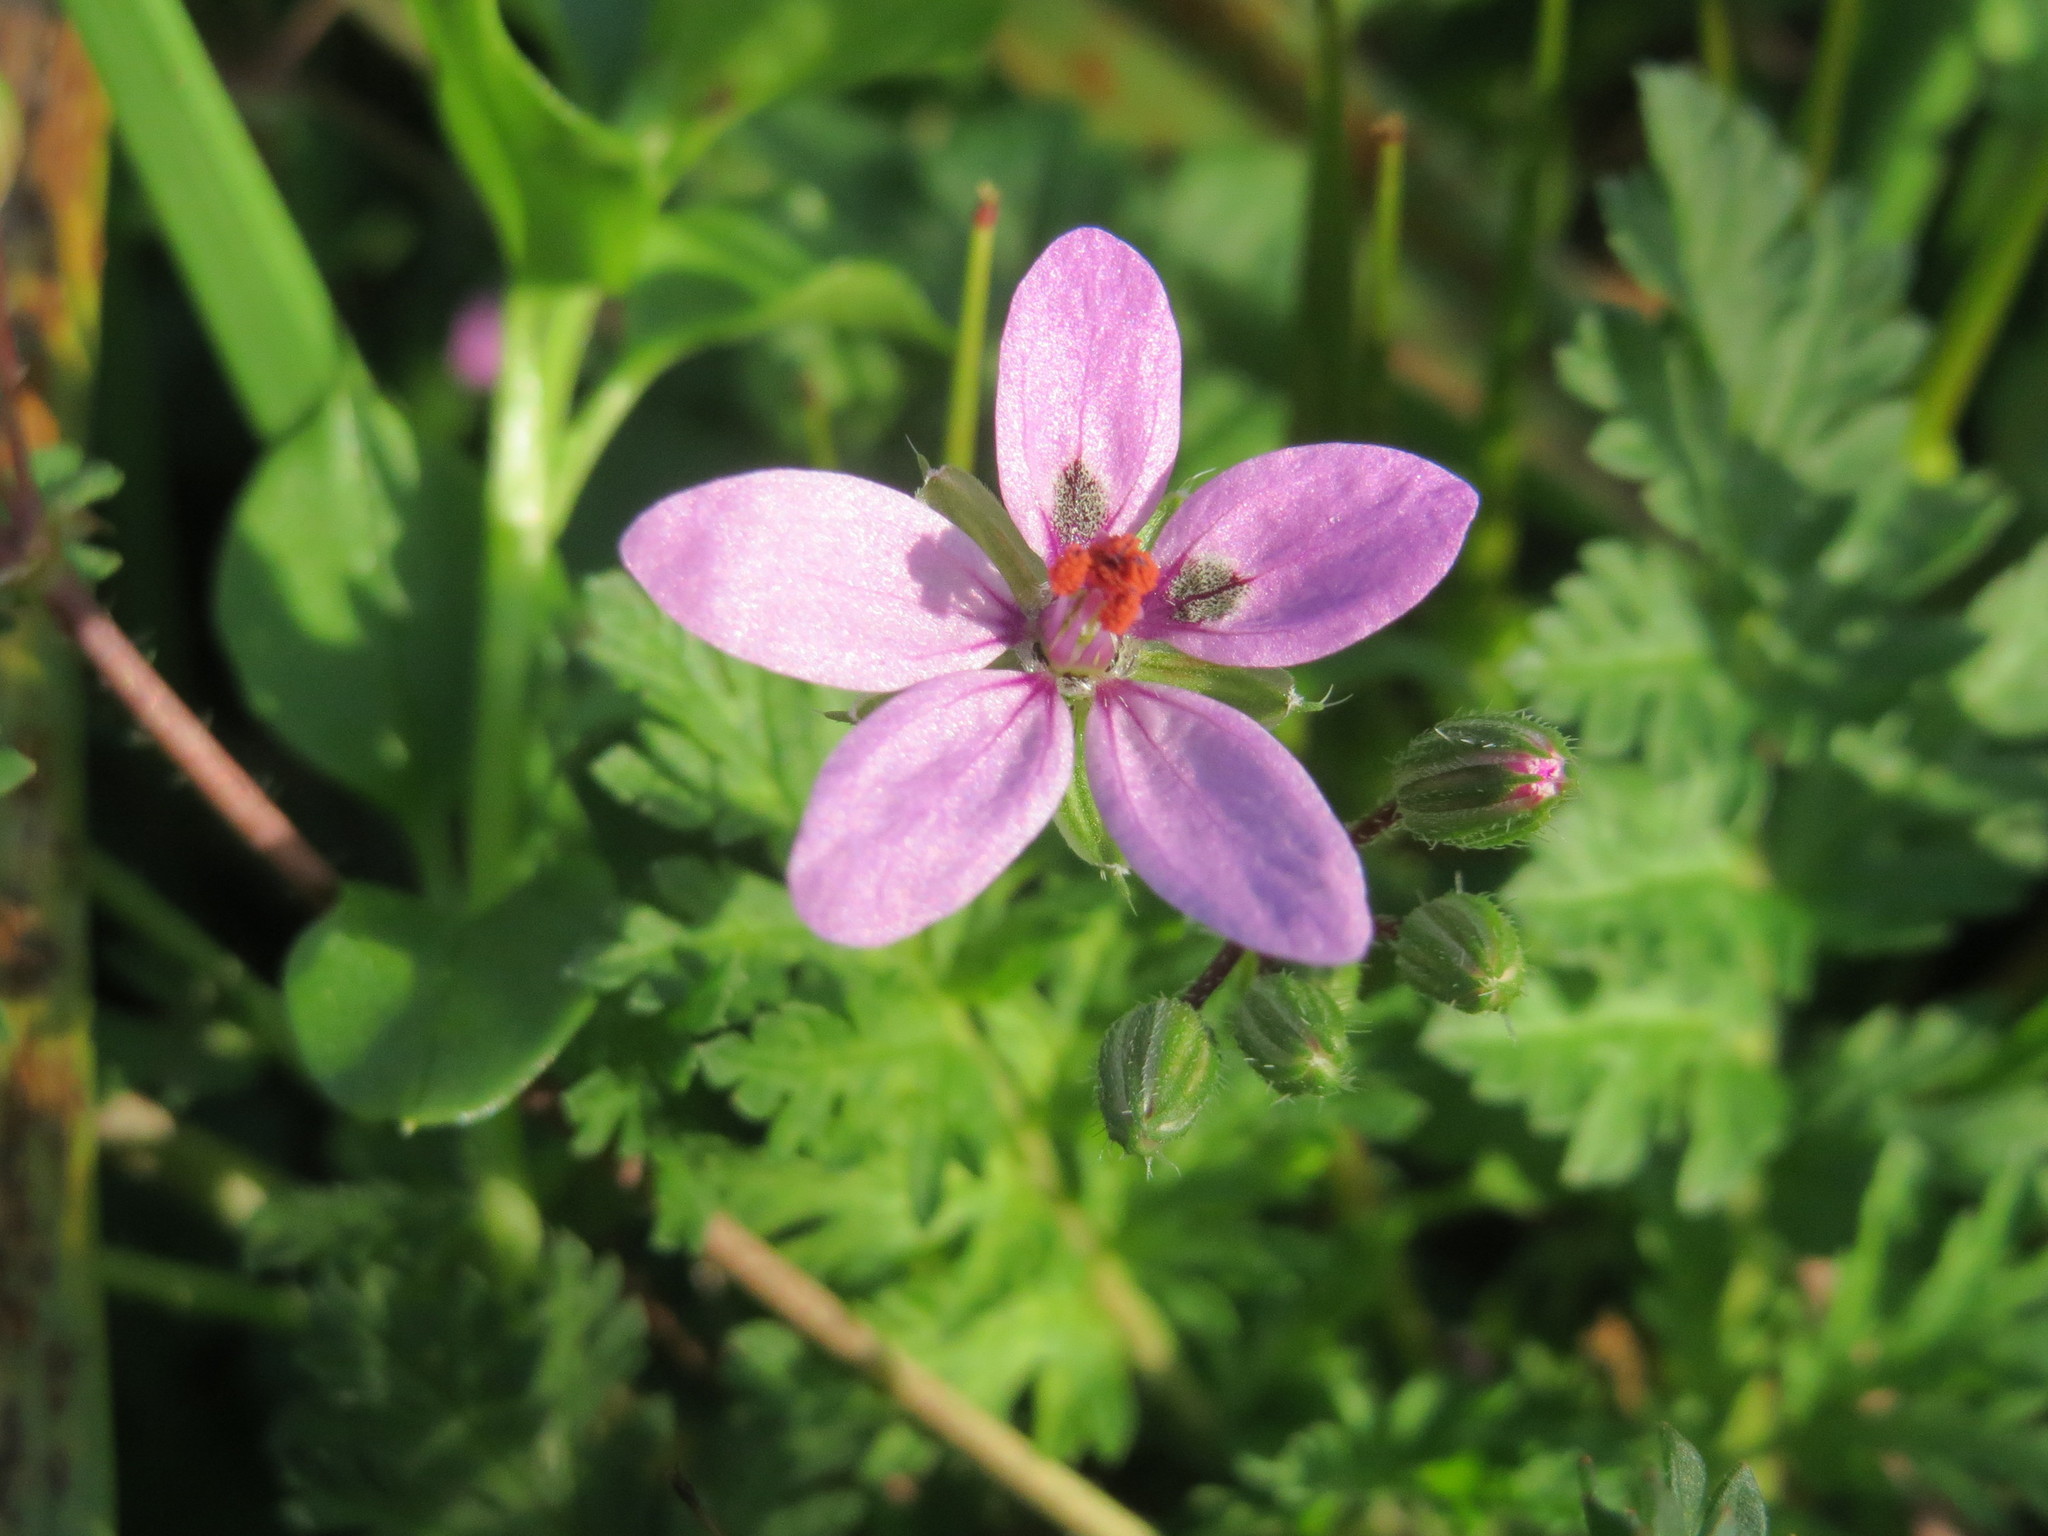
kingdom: Plantae
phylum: Tracheophyta
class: Magnoliopsida
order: Geraniales
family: Geraniaceae
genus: Erodium
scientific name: Erodium cicutarium
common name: Common stork's-bill
